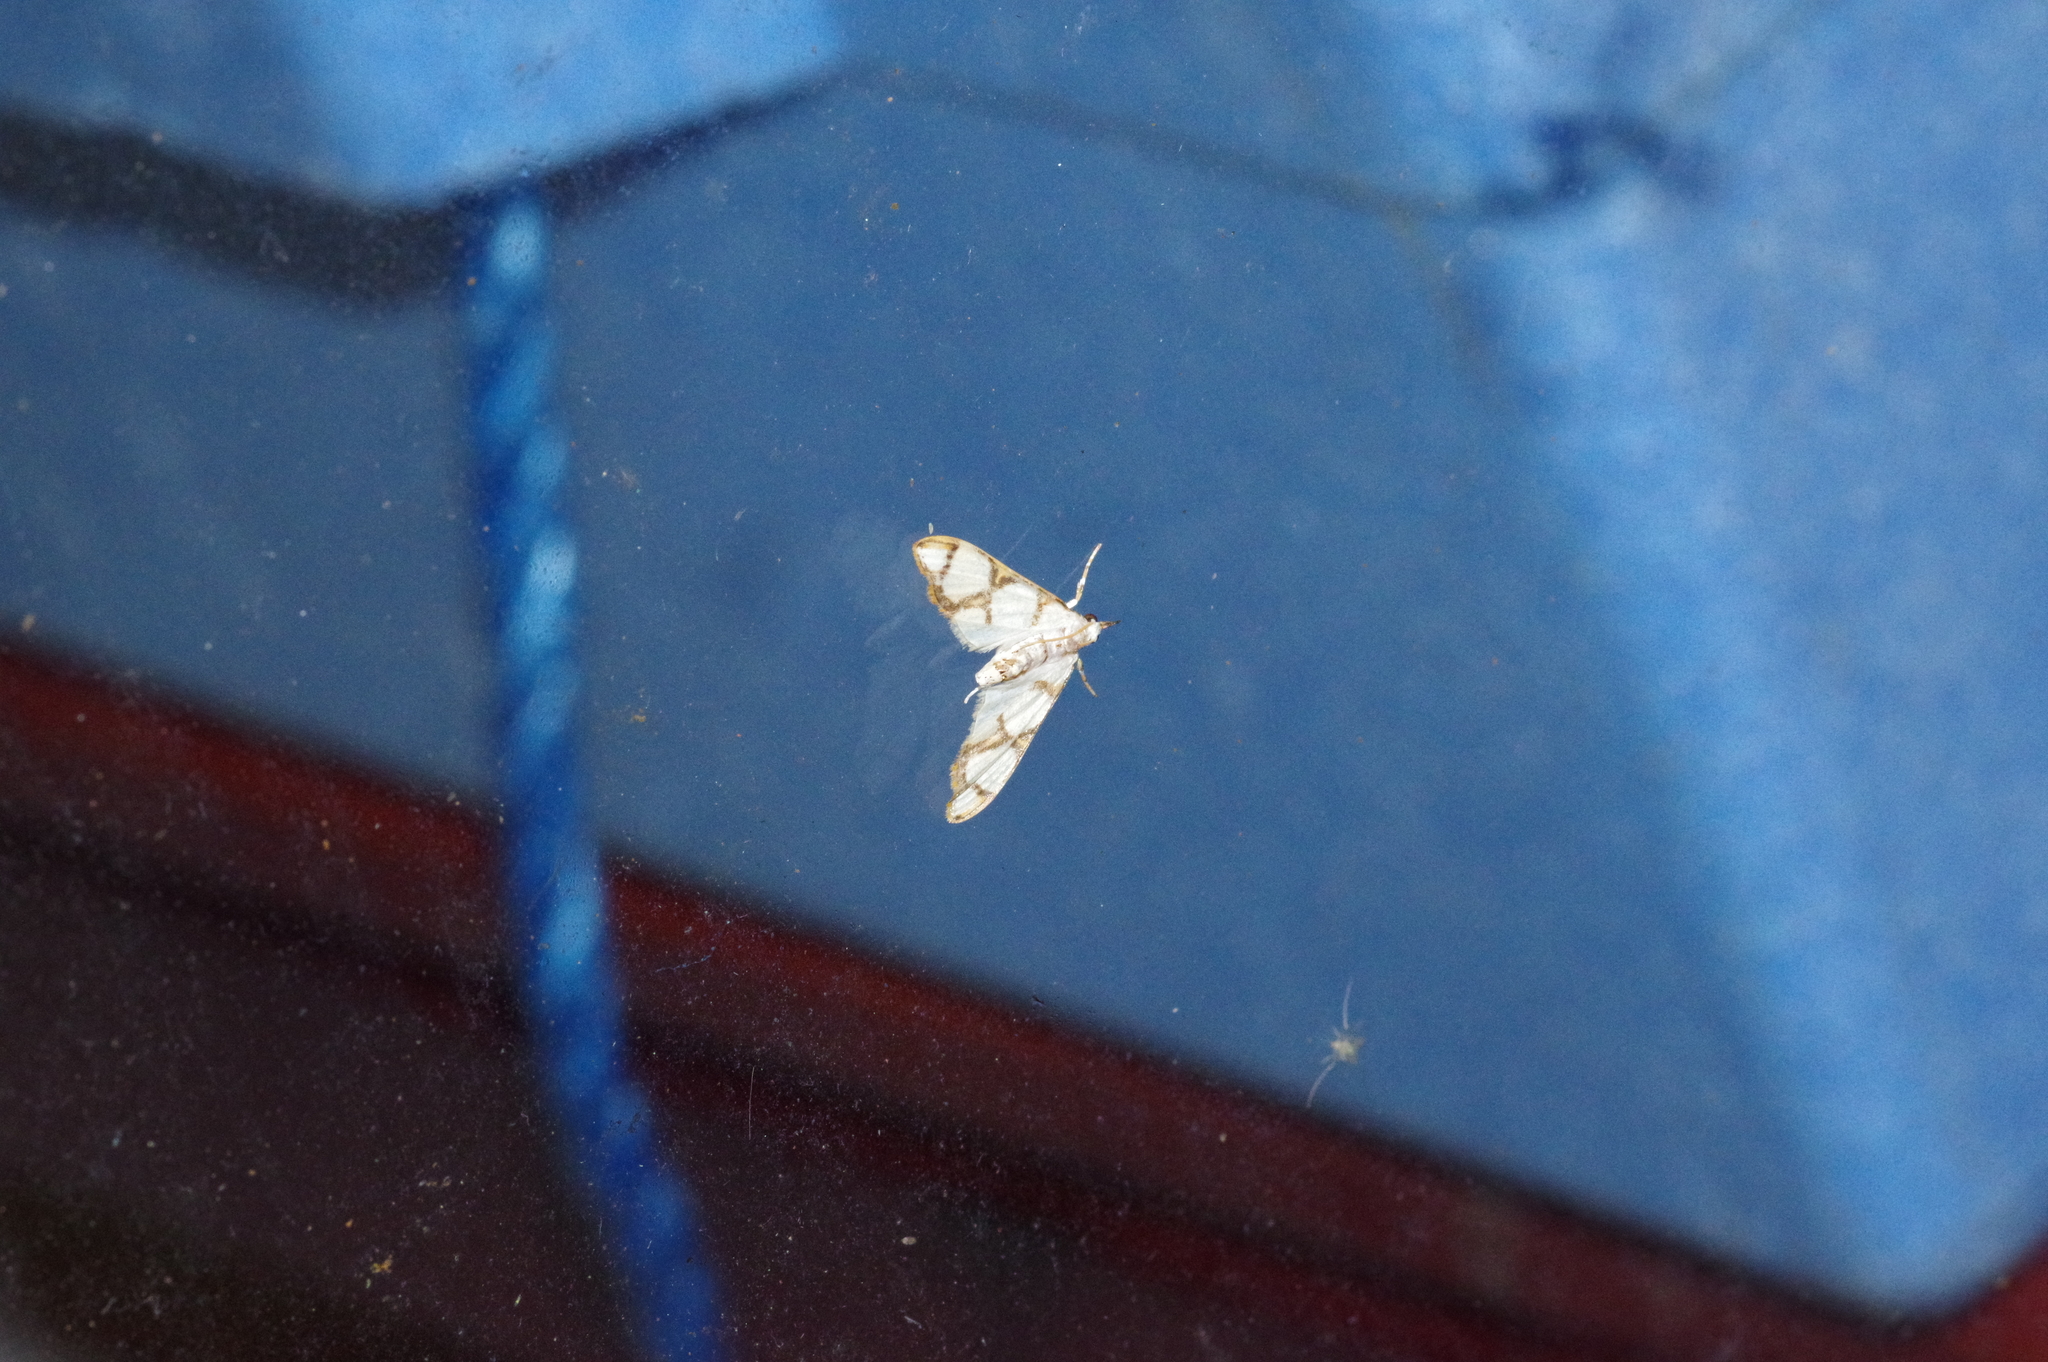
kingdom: Animalia
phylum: Arthropoda
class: Insecta
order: Lepidoptera
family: Crambidae
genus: Cirrhochrista
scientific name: Cirrhochrista kosemponialis
